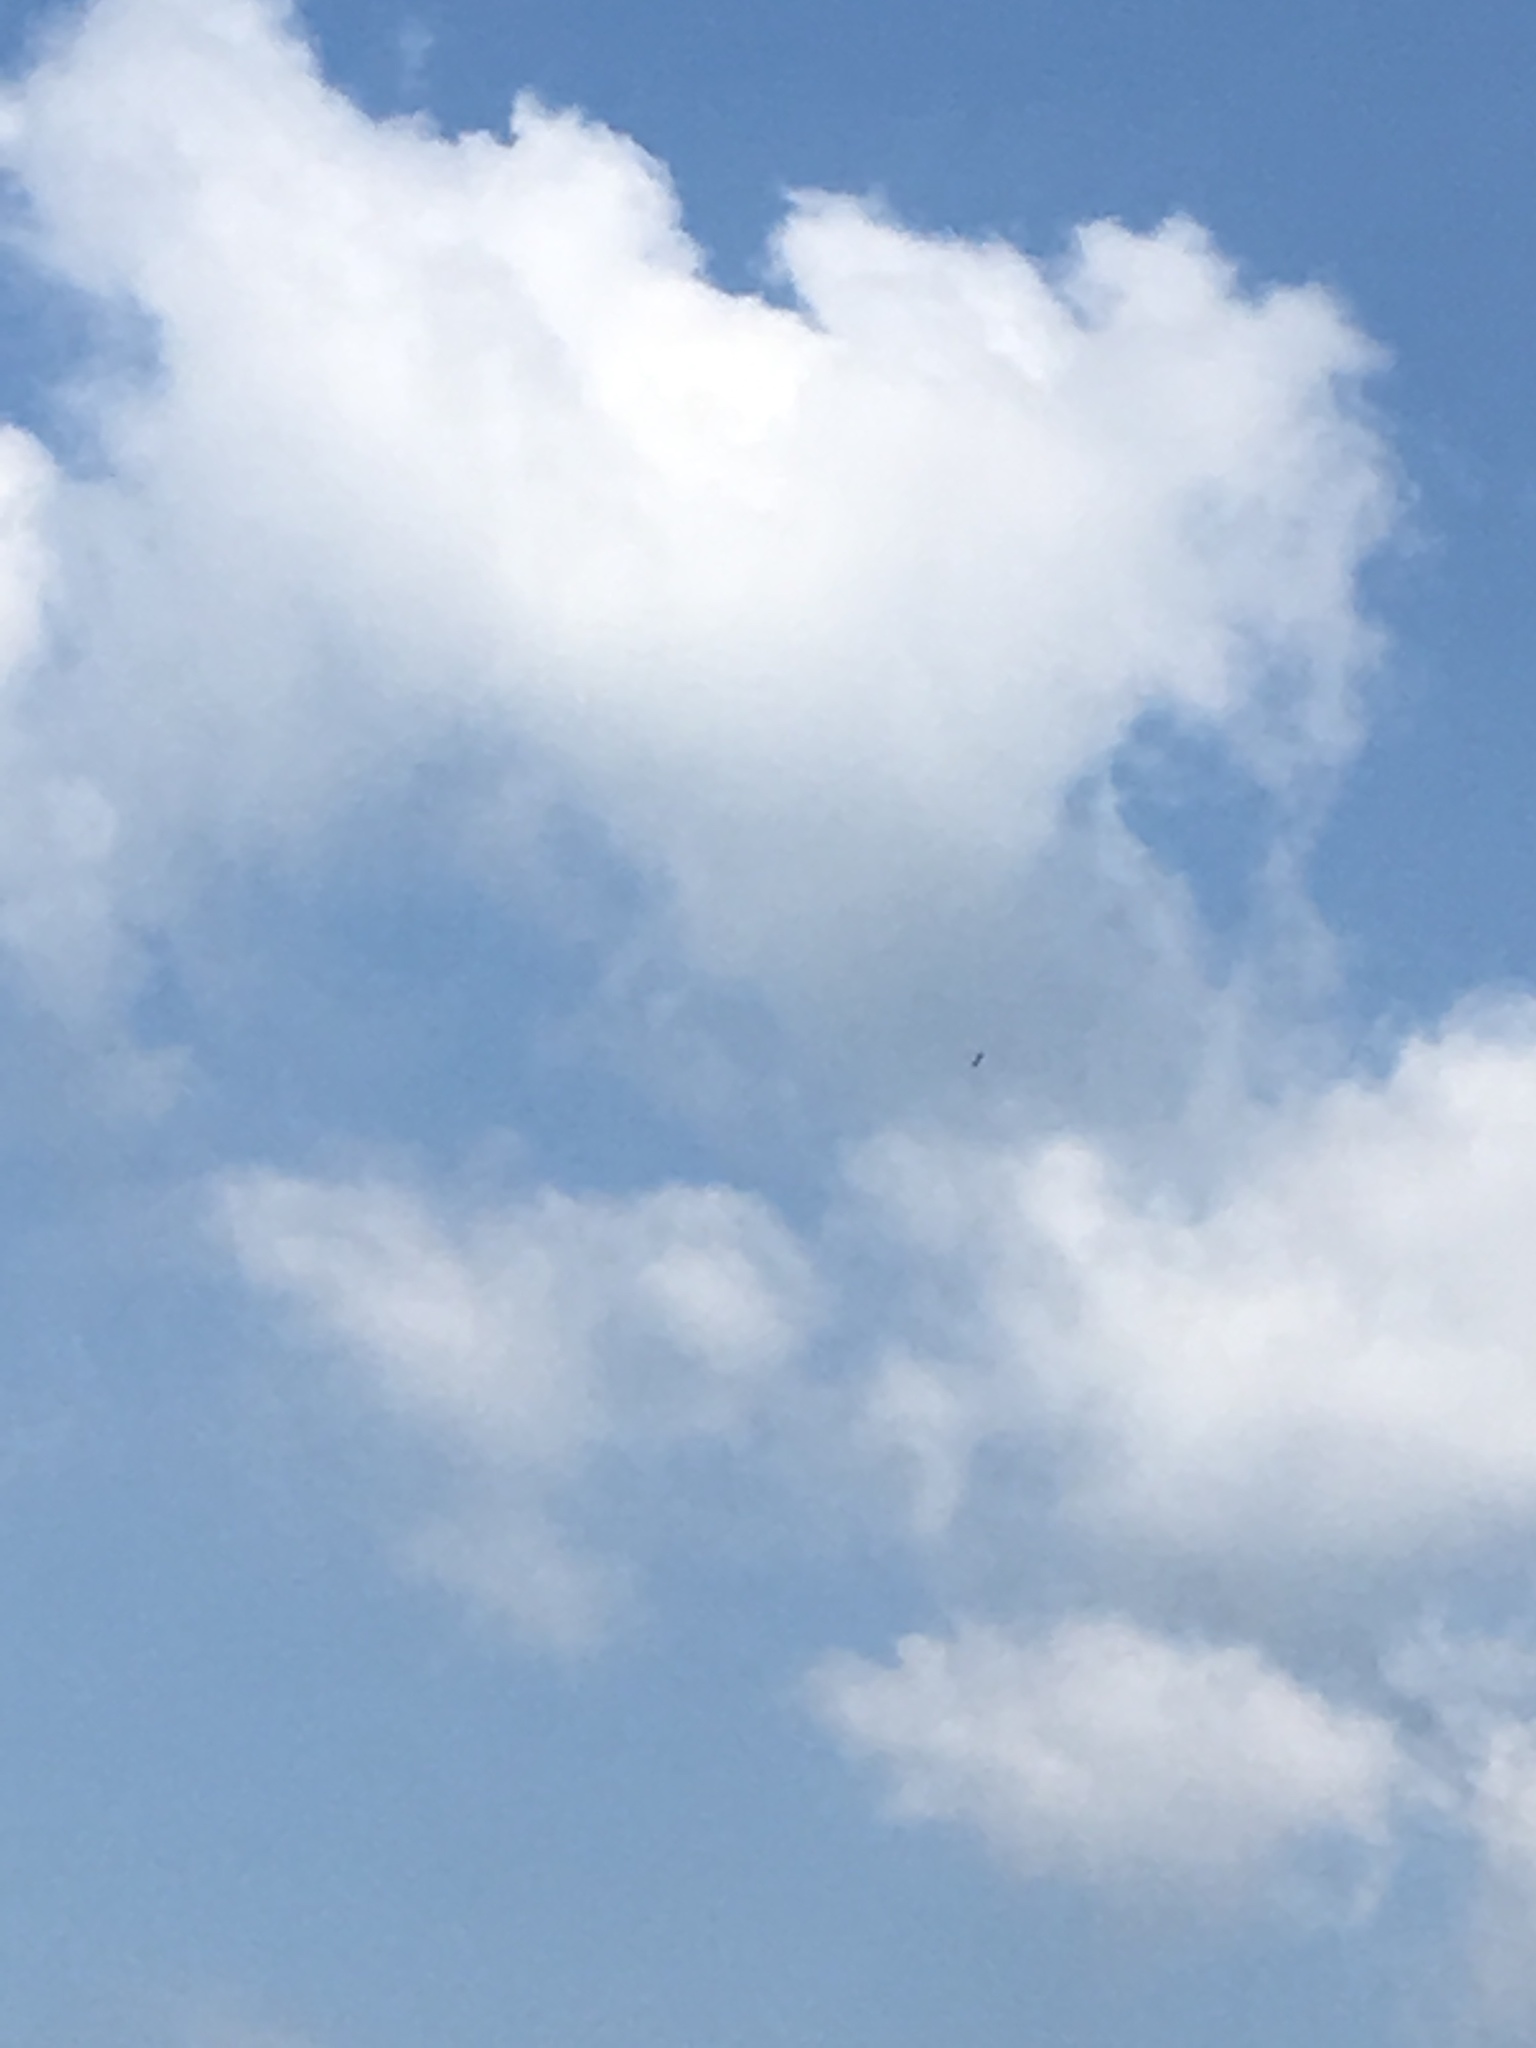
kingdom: Animalia
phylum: Chordata
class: Aves
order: Accipitriformes
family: Accipitridae
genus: Haliaeetus
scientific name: Haliaeetus leucogaster
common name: White-bellied sea eagle
